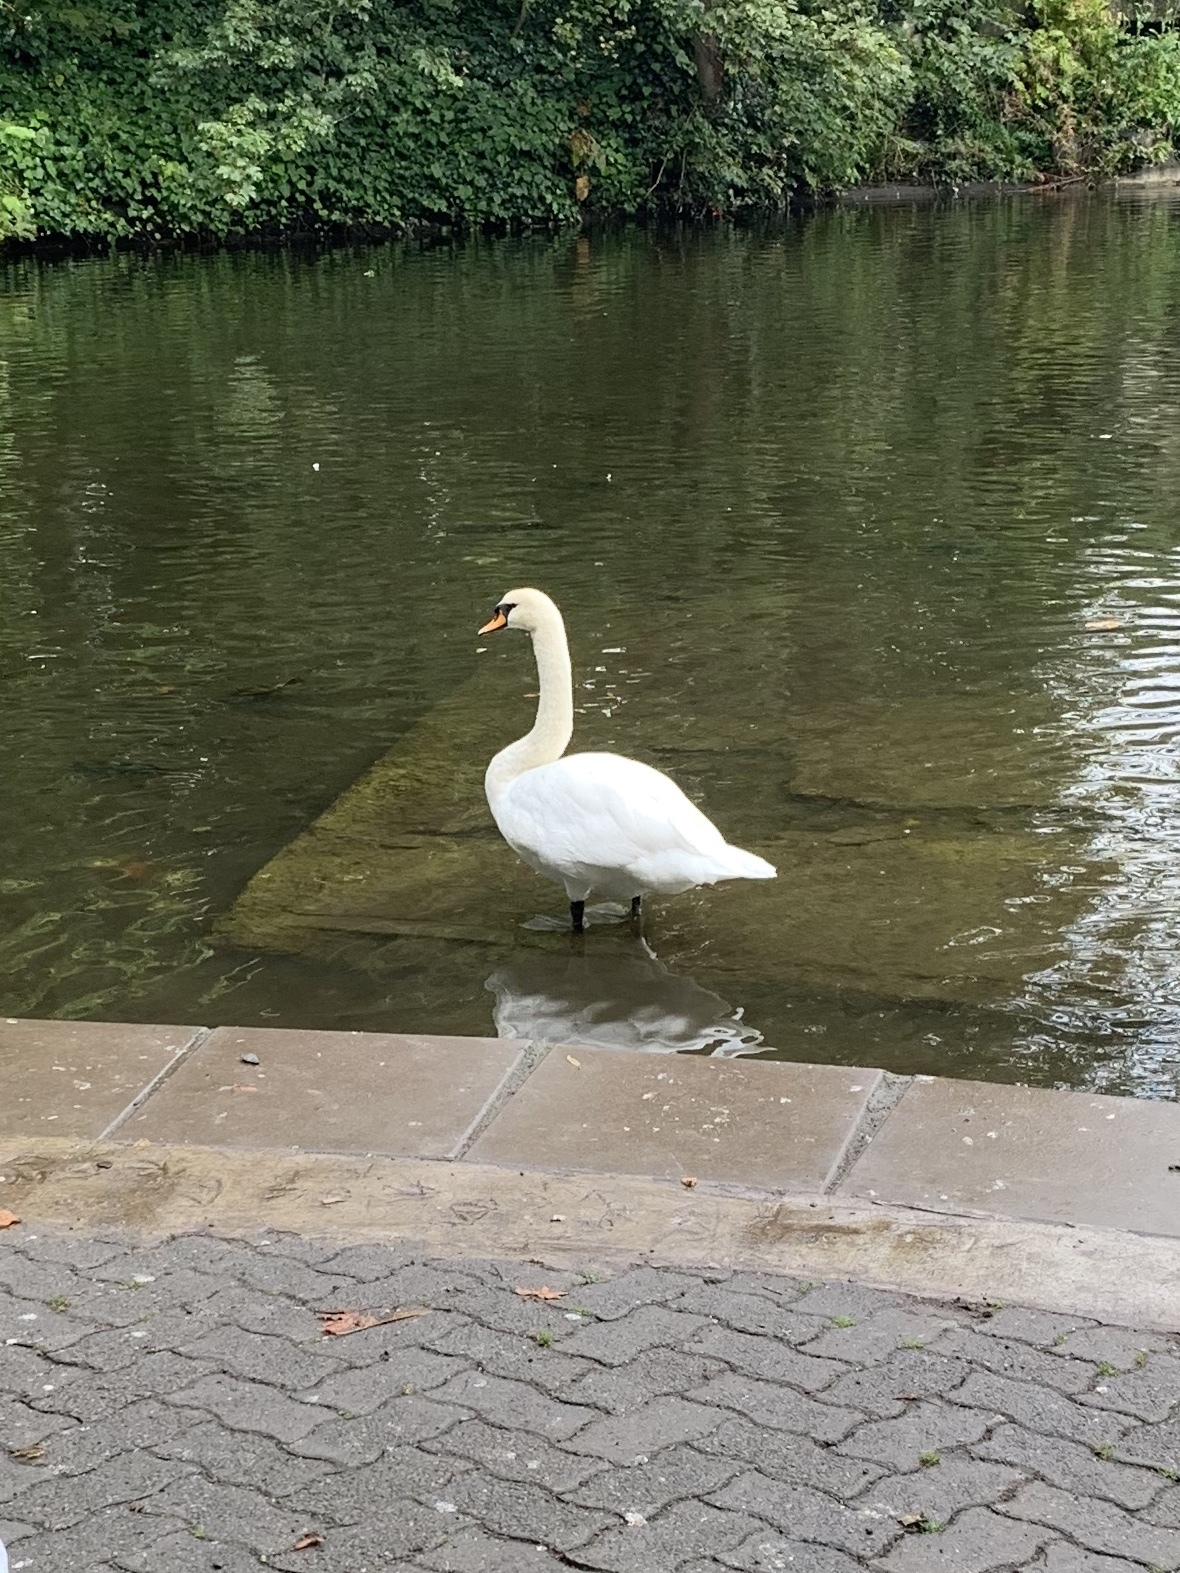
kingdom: Animalia
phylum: Chordata
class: Aves
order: Anseriformes
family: Anatidae
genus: Cygnus
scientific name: Cygnus olor
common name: Mute swan
